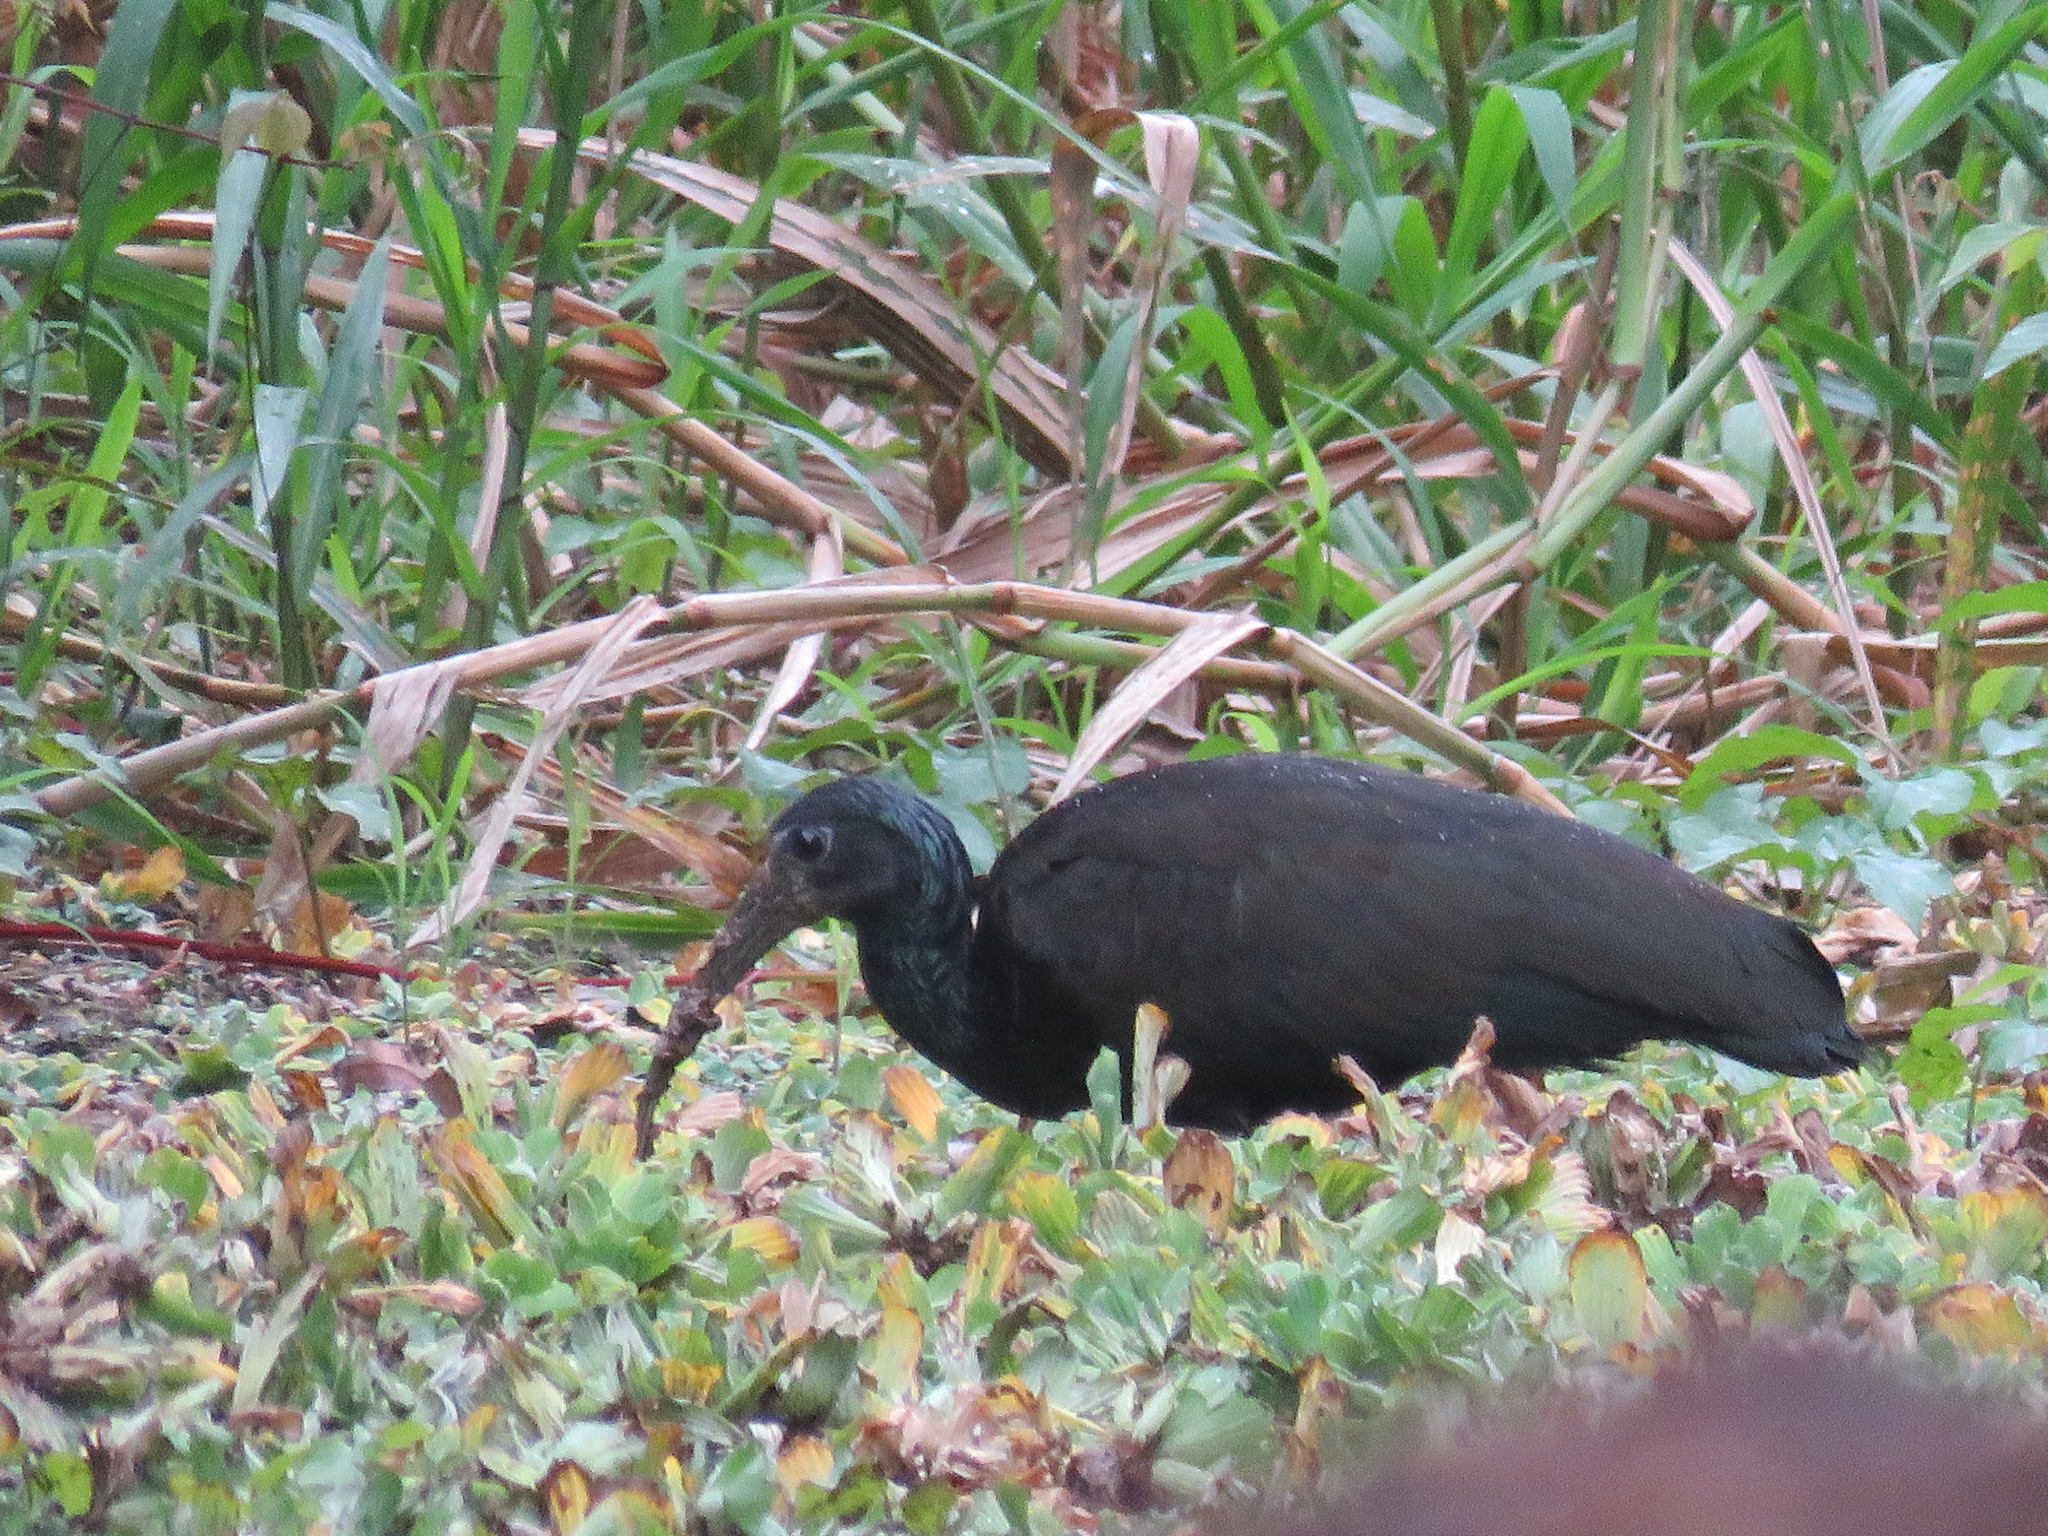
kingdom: Animalia
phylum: Chordata
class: Aves
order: Pelecaniformes
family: Threskiornithidae
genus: Mesembrinibis
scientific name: Mesembrinibis cayennensis
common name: Green ibis
